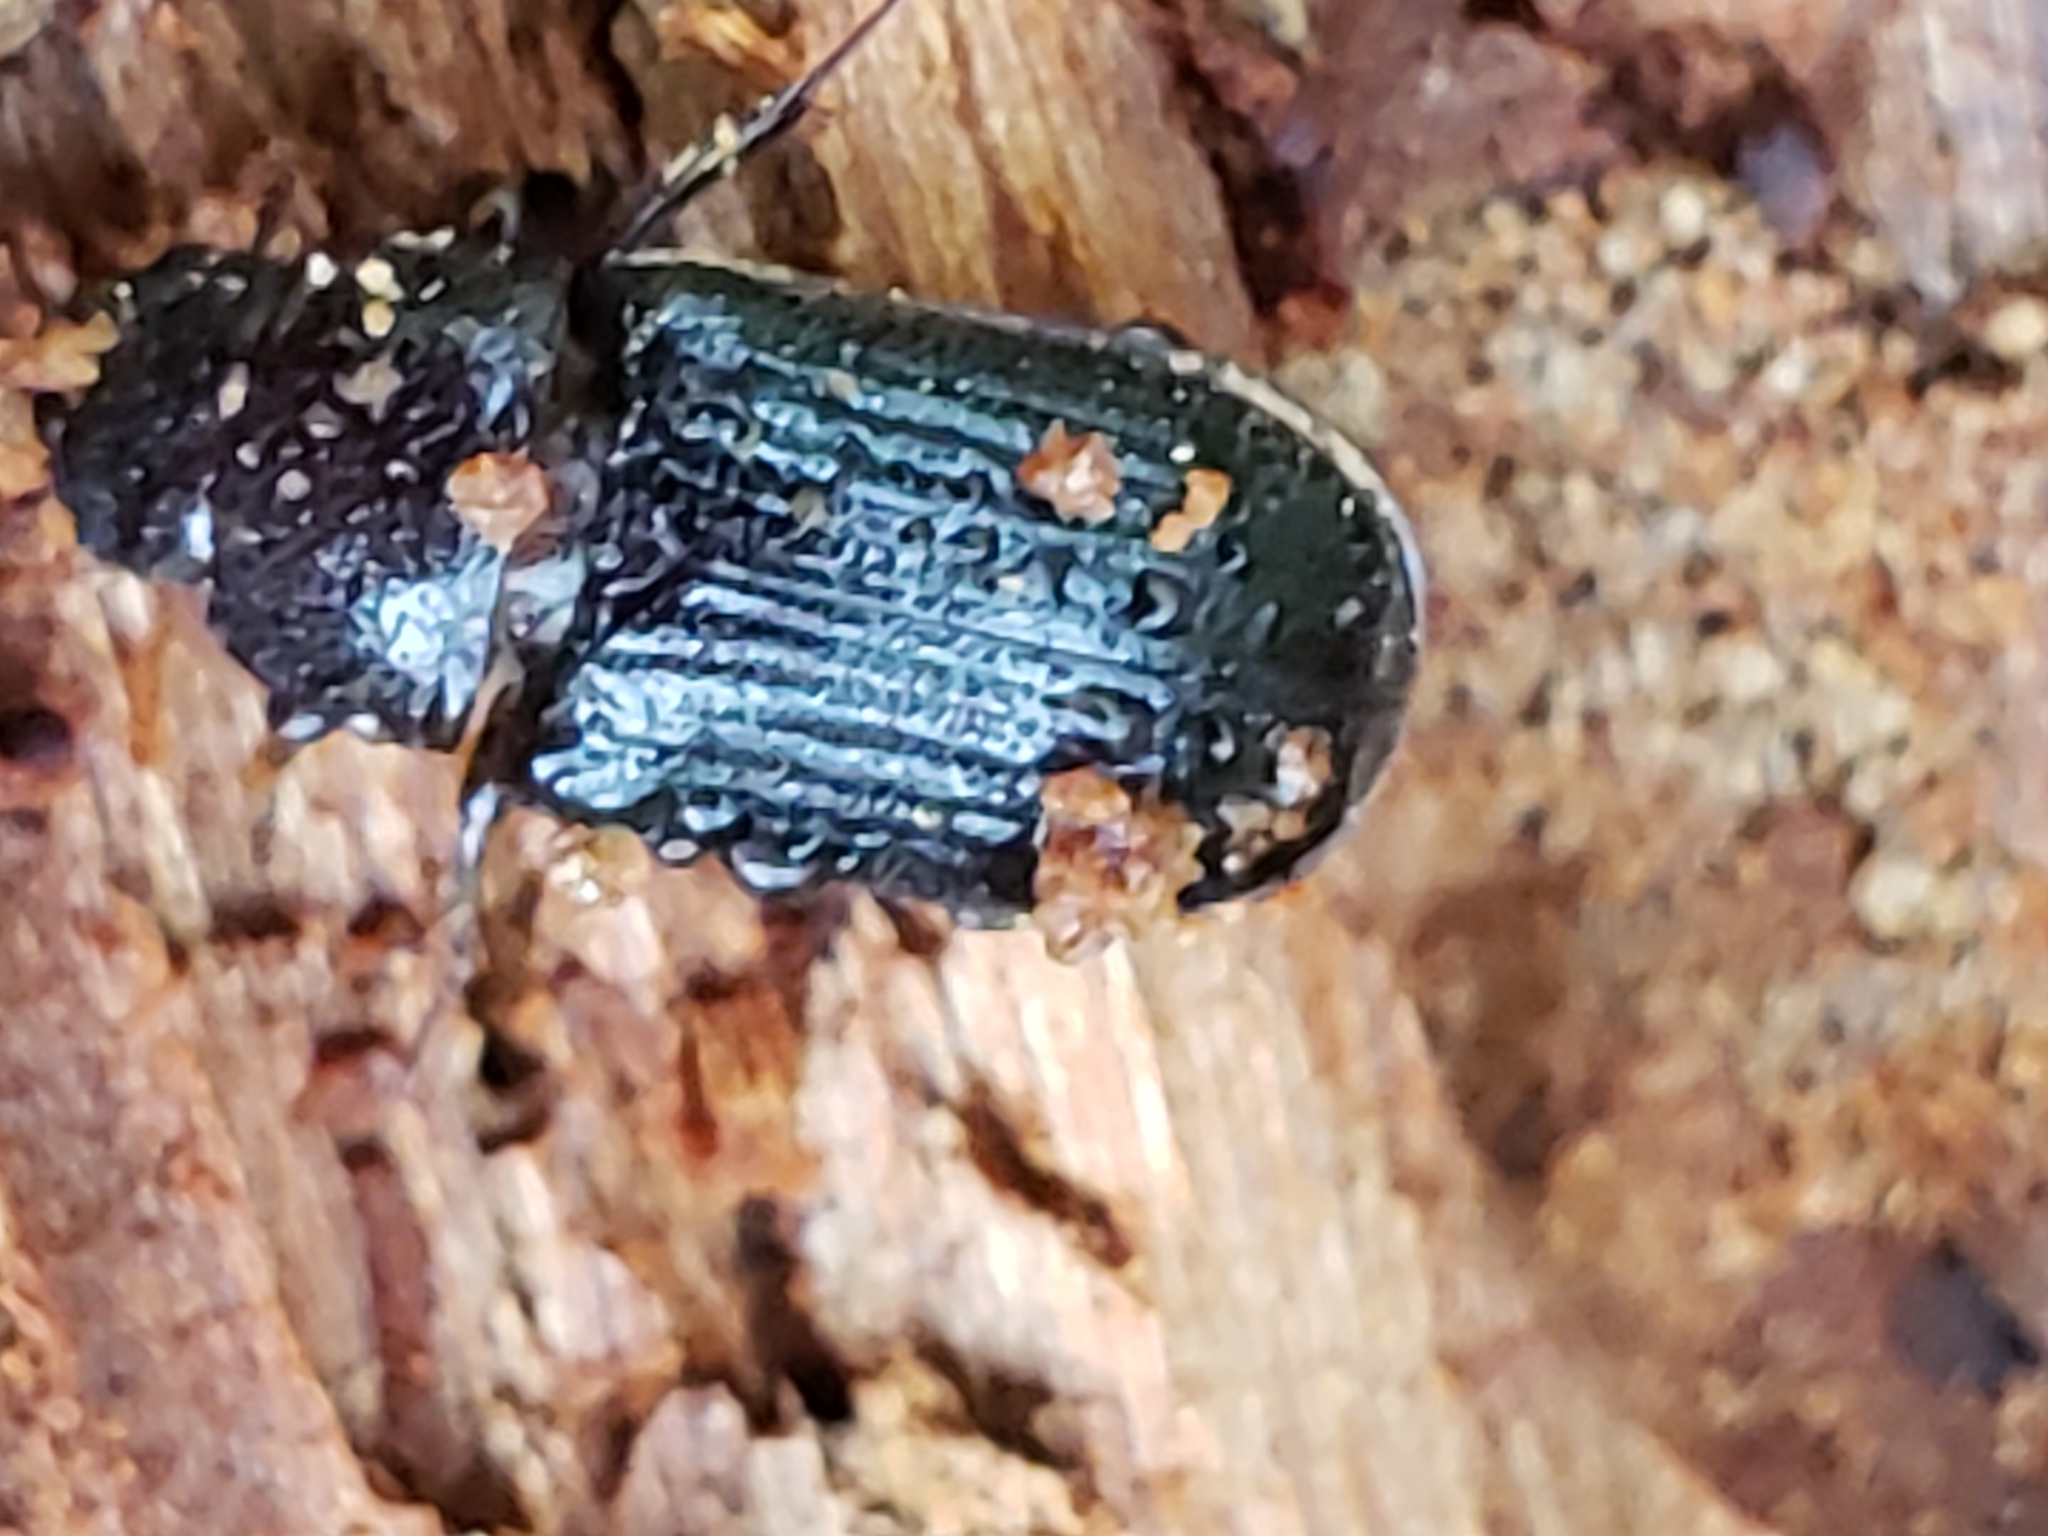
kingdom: Animalia
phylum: Arthropoda
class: Insecta
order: Coleoptera
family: Lucanidae
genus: Ceruchus
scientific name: Ceruchus piceus
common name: Red-rot decay stag beetle
